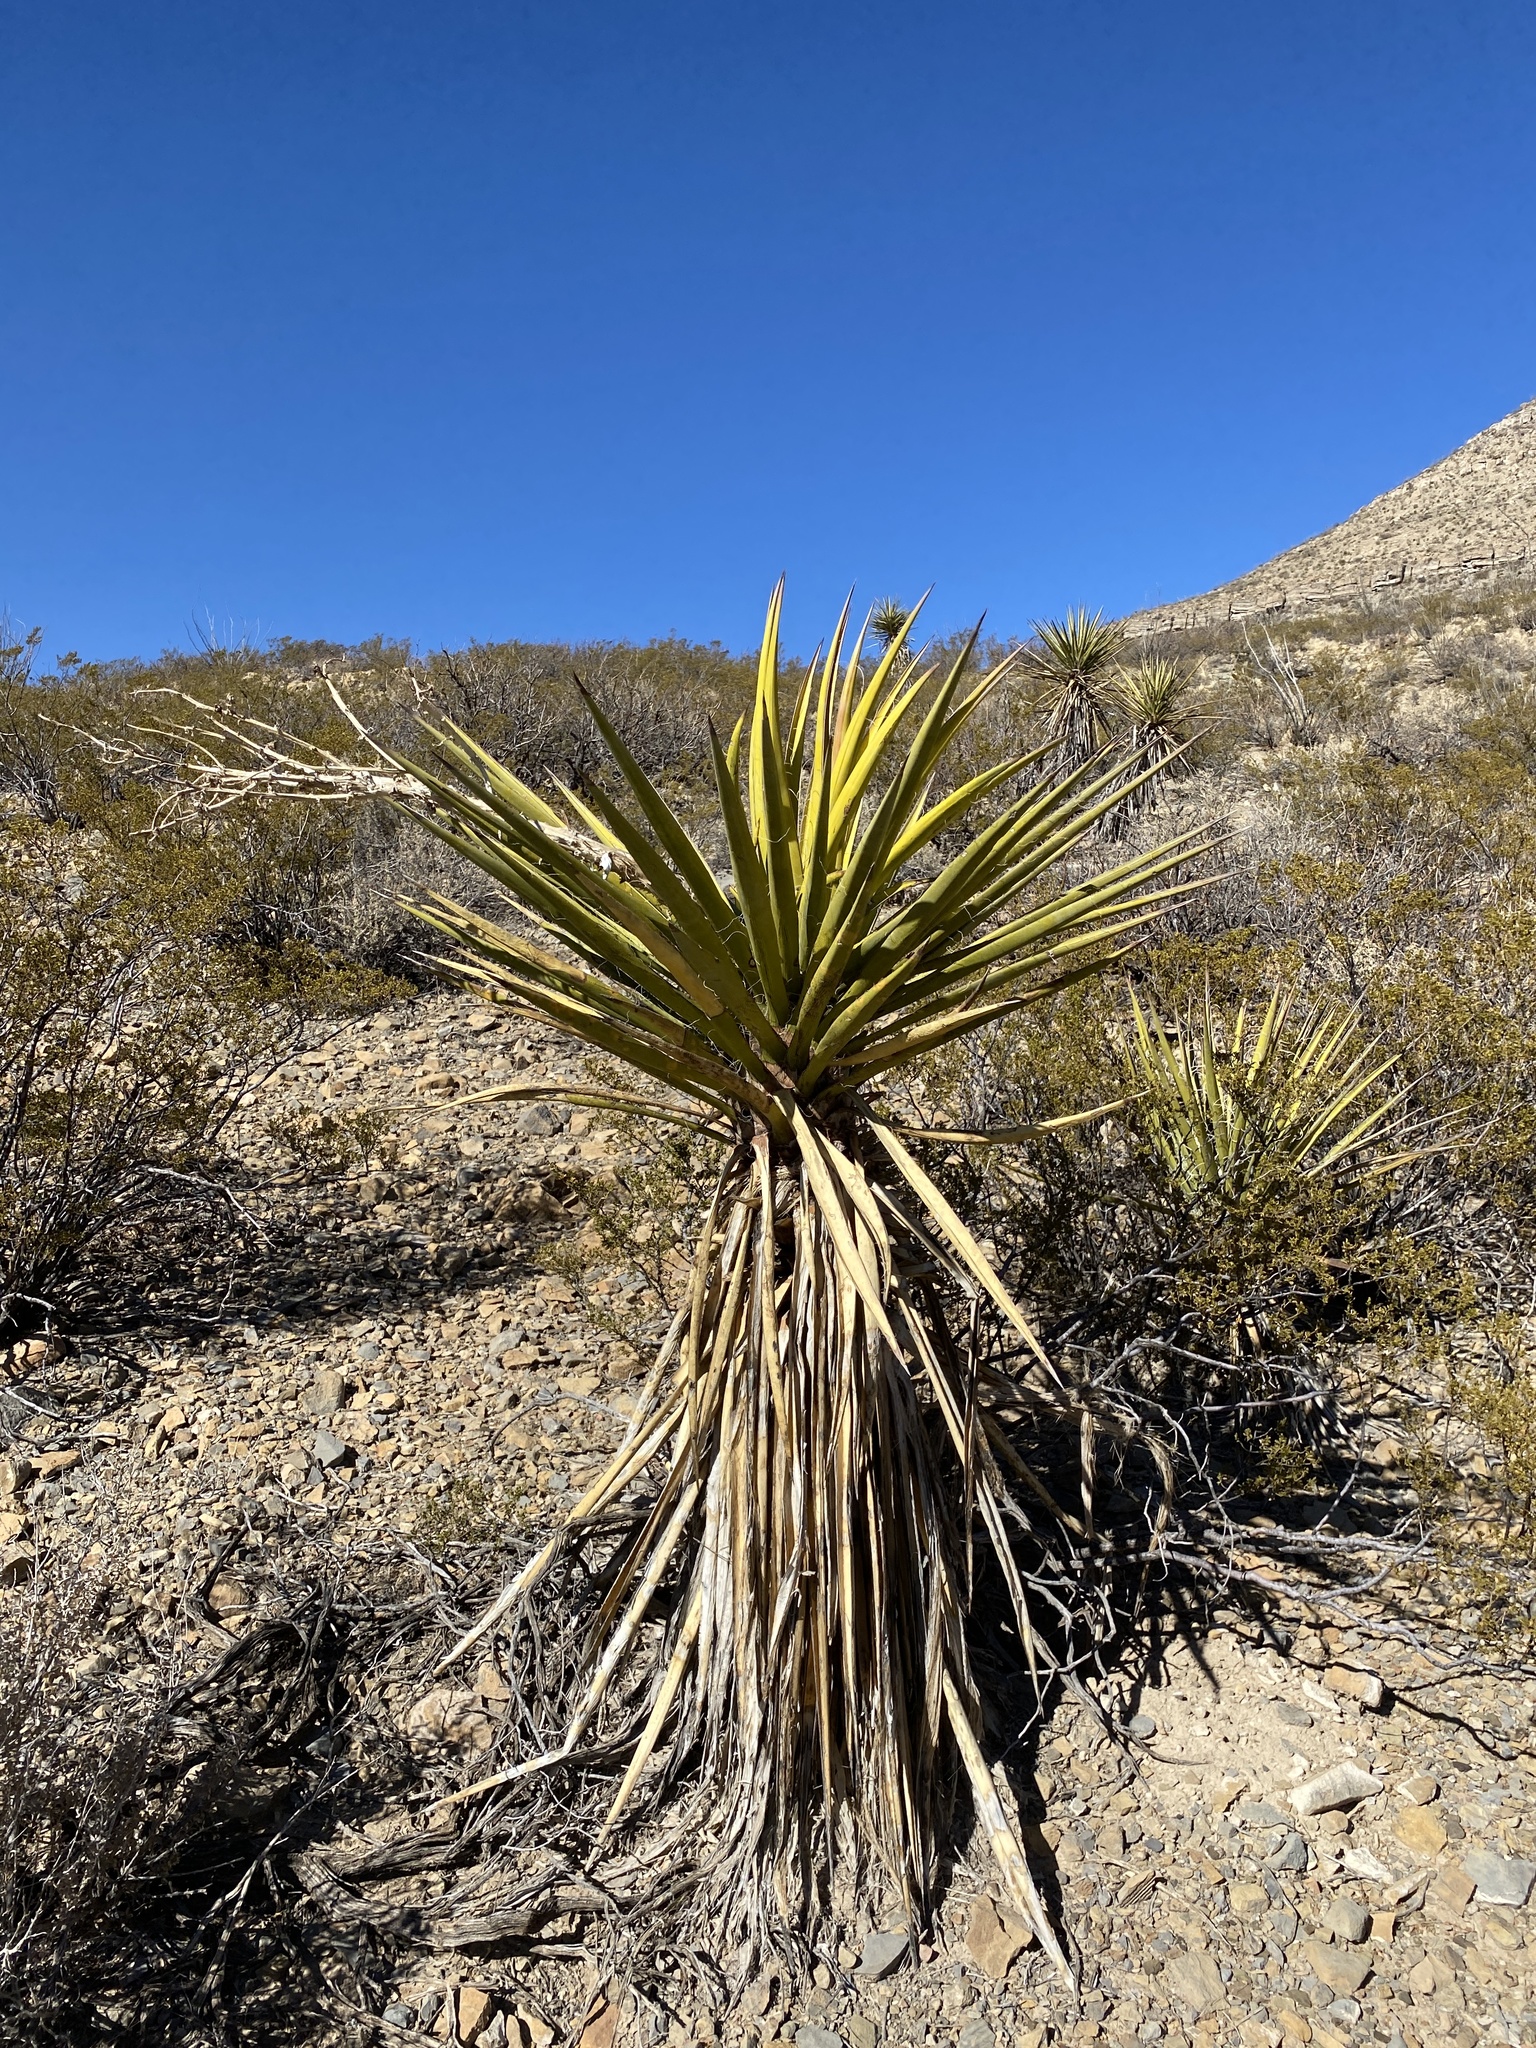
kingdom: Plantae
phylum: Tracheophyta
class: Liliopsida
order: Asparagales
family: Asparagaceae
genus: Yucca
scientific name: Yucca treculiana
